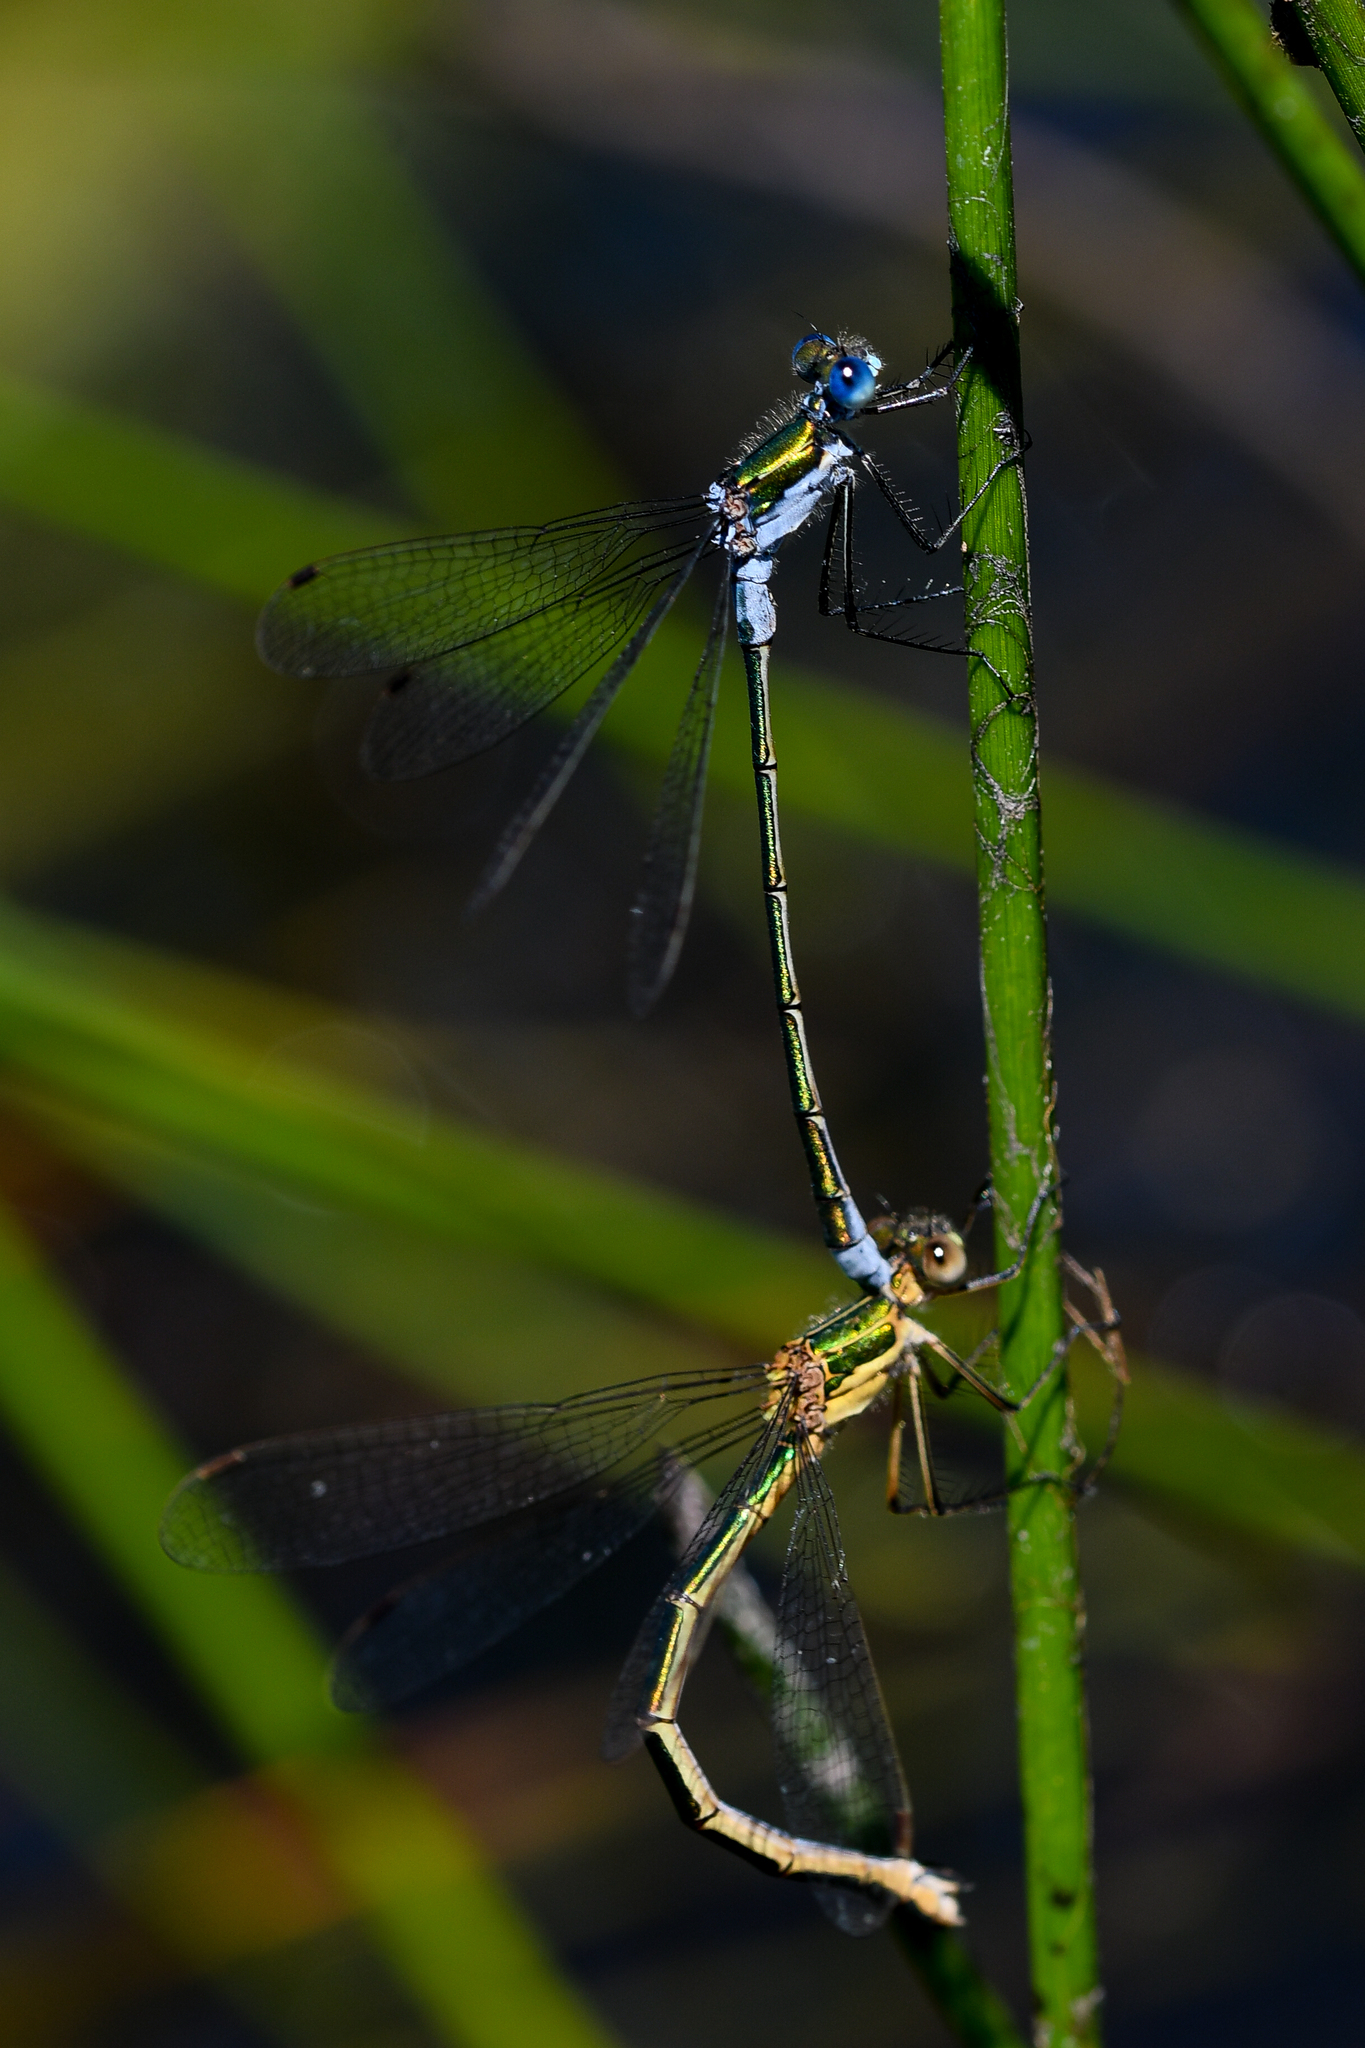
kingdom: Animalia
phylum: Arthropoda
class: Insecta
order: Odonata
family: Lestidae
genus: Lestes
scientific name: Lestes sponsa
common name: Common spreadwing
